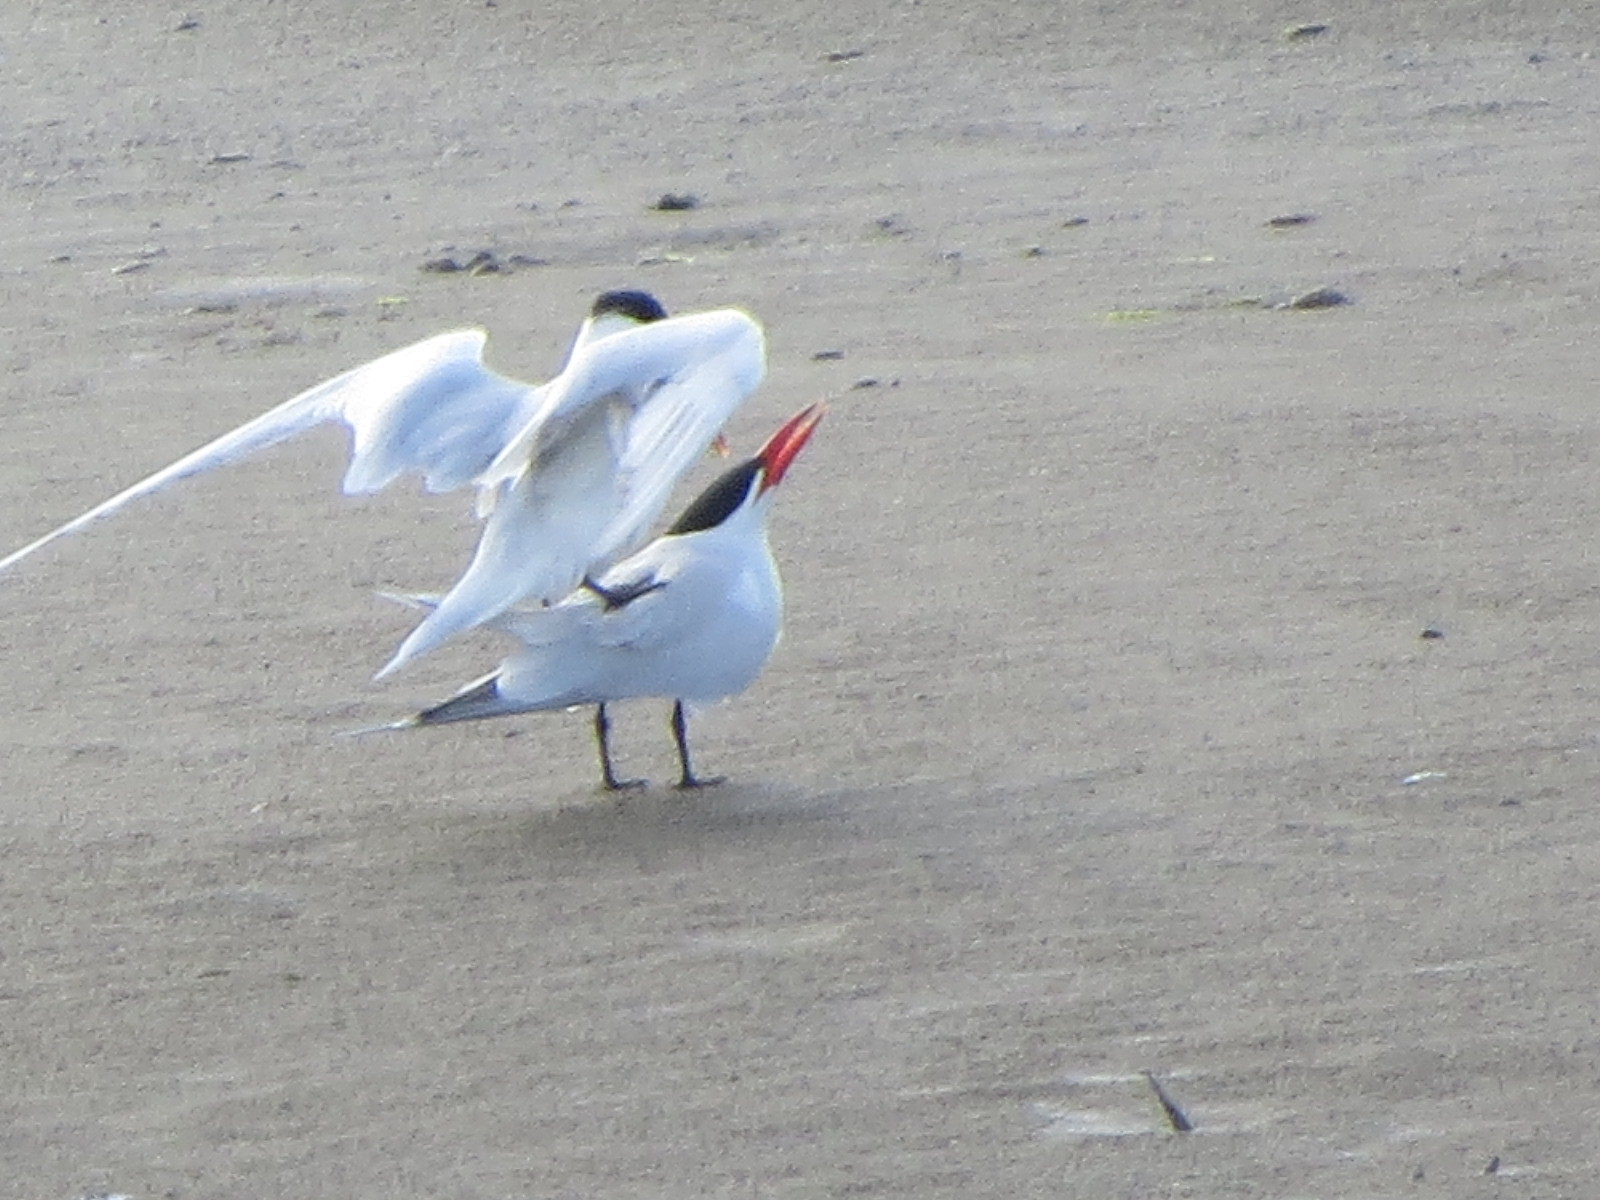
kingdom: Animalia
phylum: Chordata
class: Aves
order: Charadriiformes
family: Laridae
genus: Hydroprogne
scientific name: Hydroprogne caspia
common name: Caspian tern
